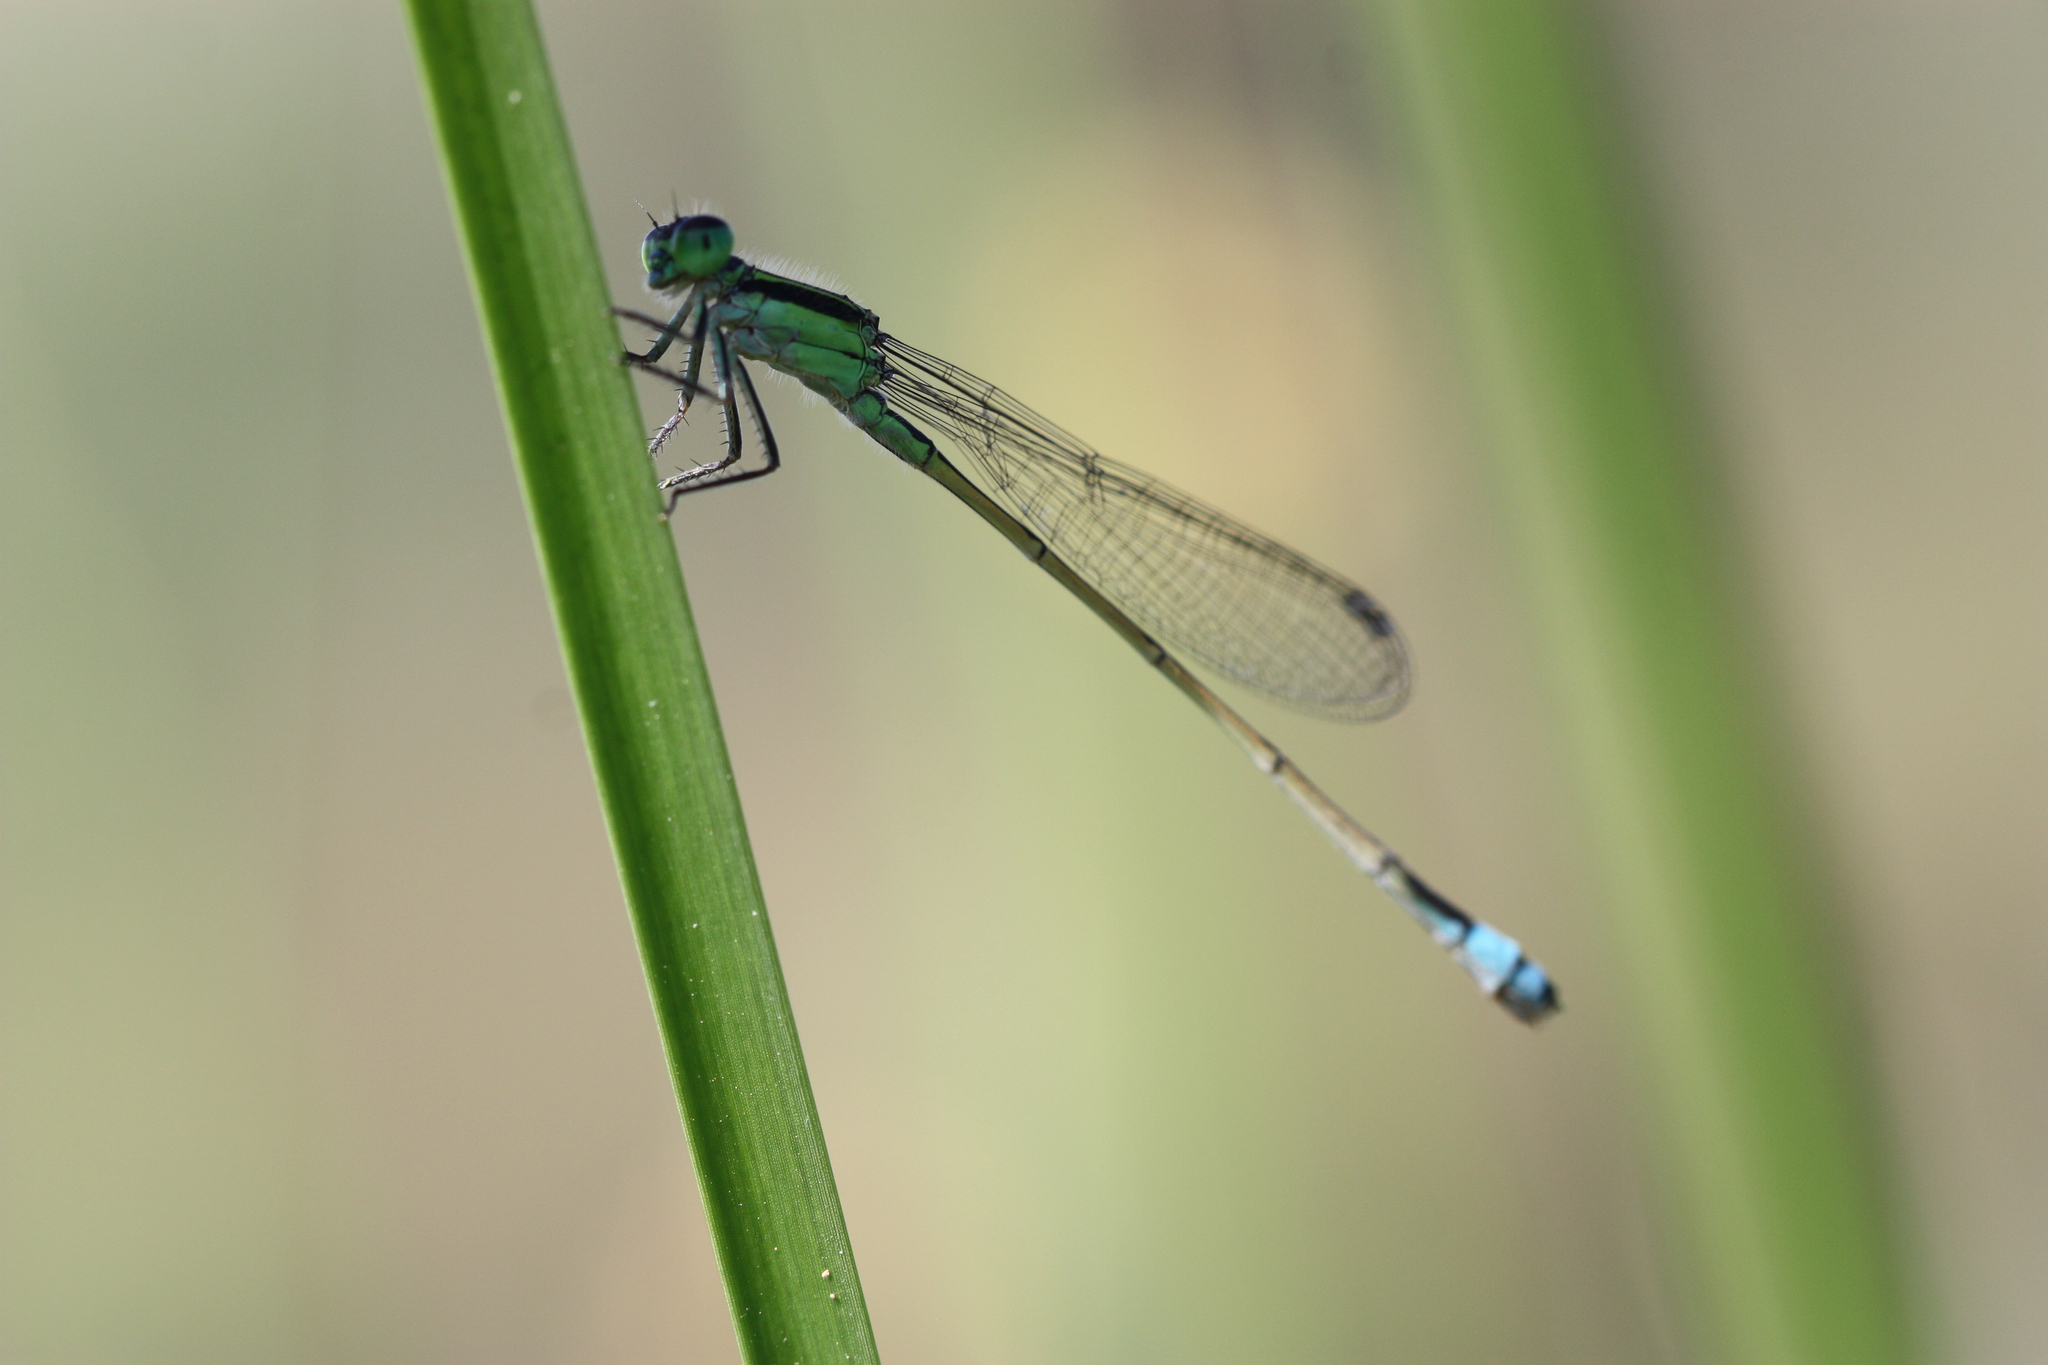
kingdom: Animalia
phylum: Arthropoda
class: Insecta
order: Odonata
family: Coenagrionidae
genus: Ischnura
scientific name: Ischnura ramburii
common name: Rambur's forktail
